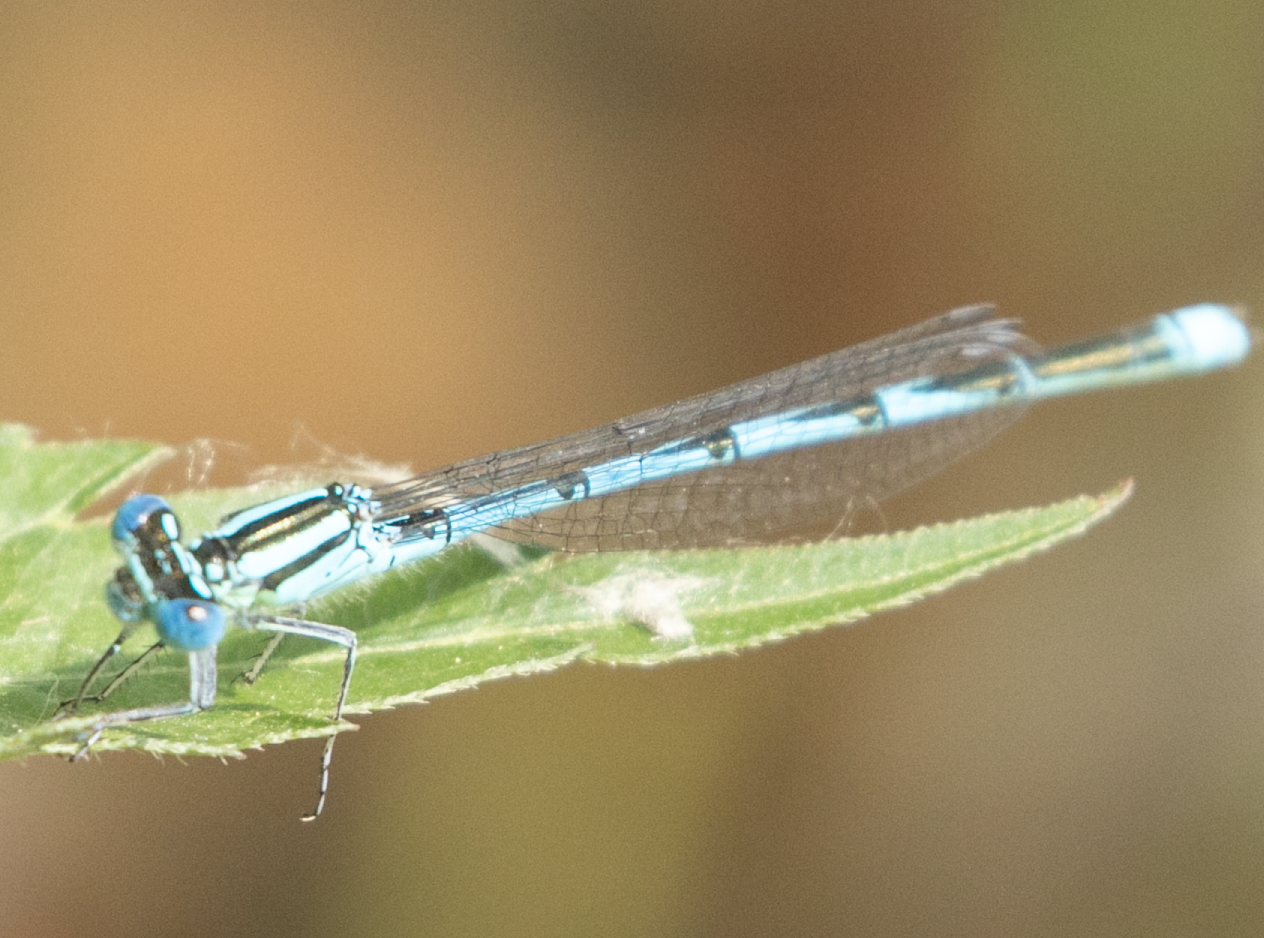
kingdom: Animalia
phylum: Arthropoda
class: Insecta
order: Odonata
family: Coenagrionidae
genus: Erythromma
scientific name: Erythromma lindenii
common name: Blue-eye
